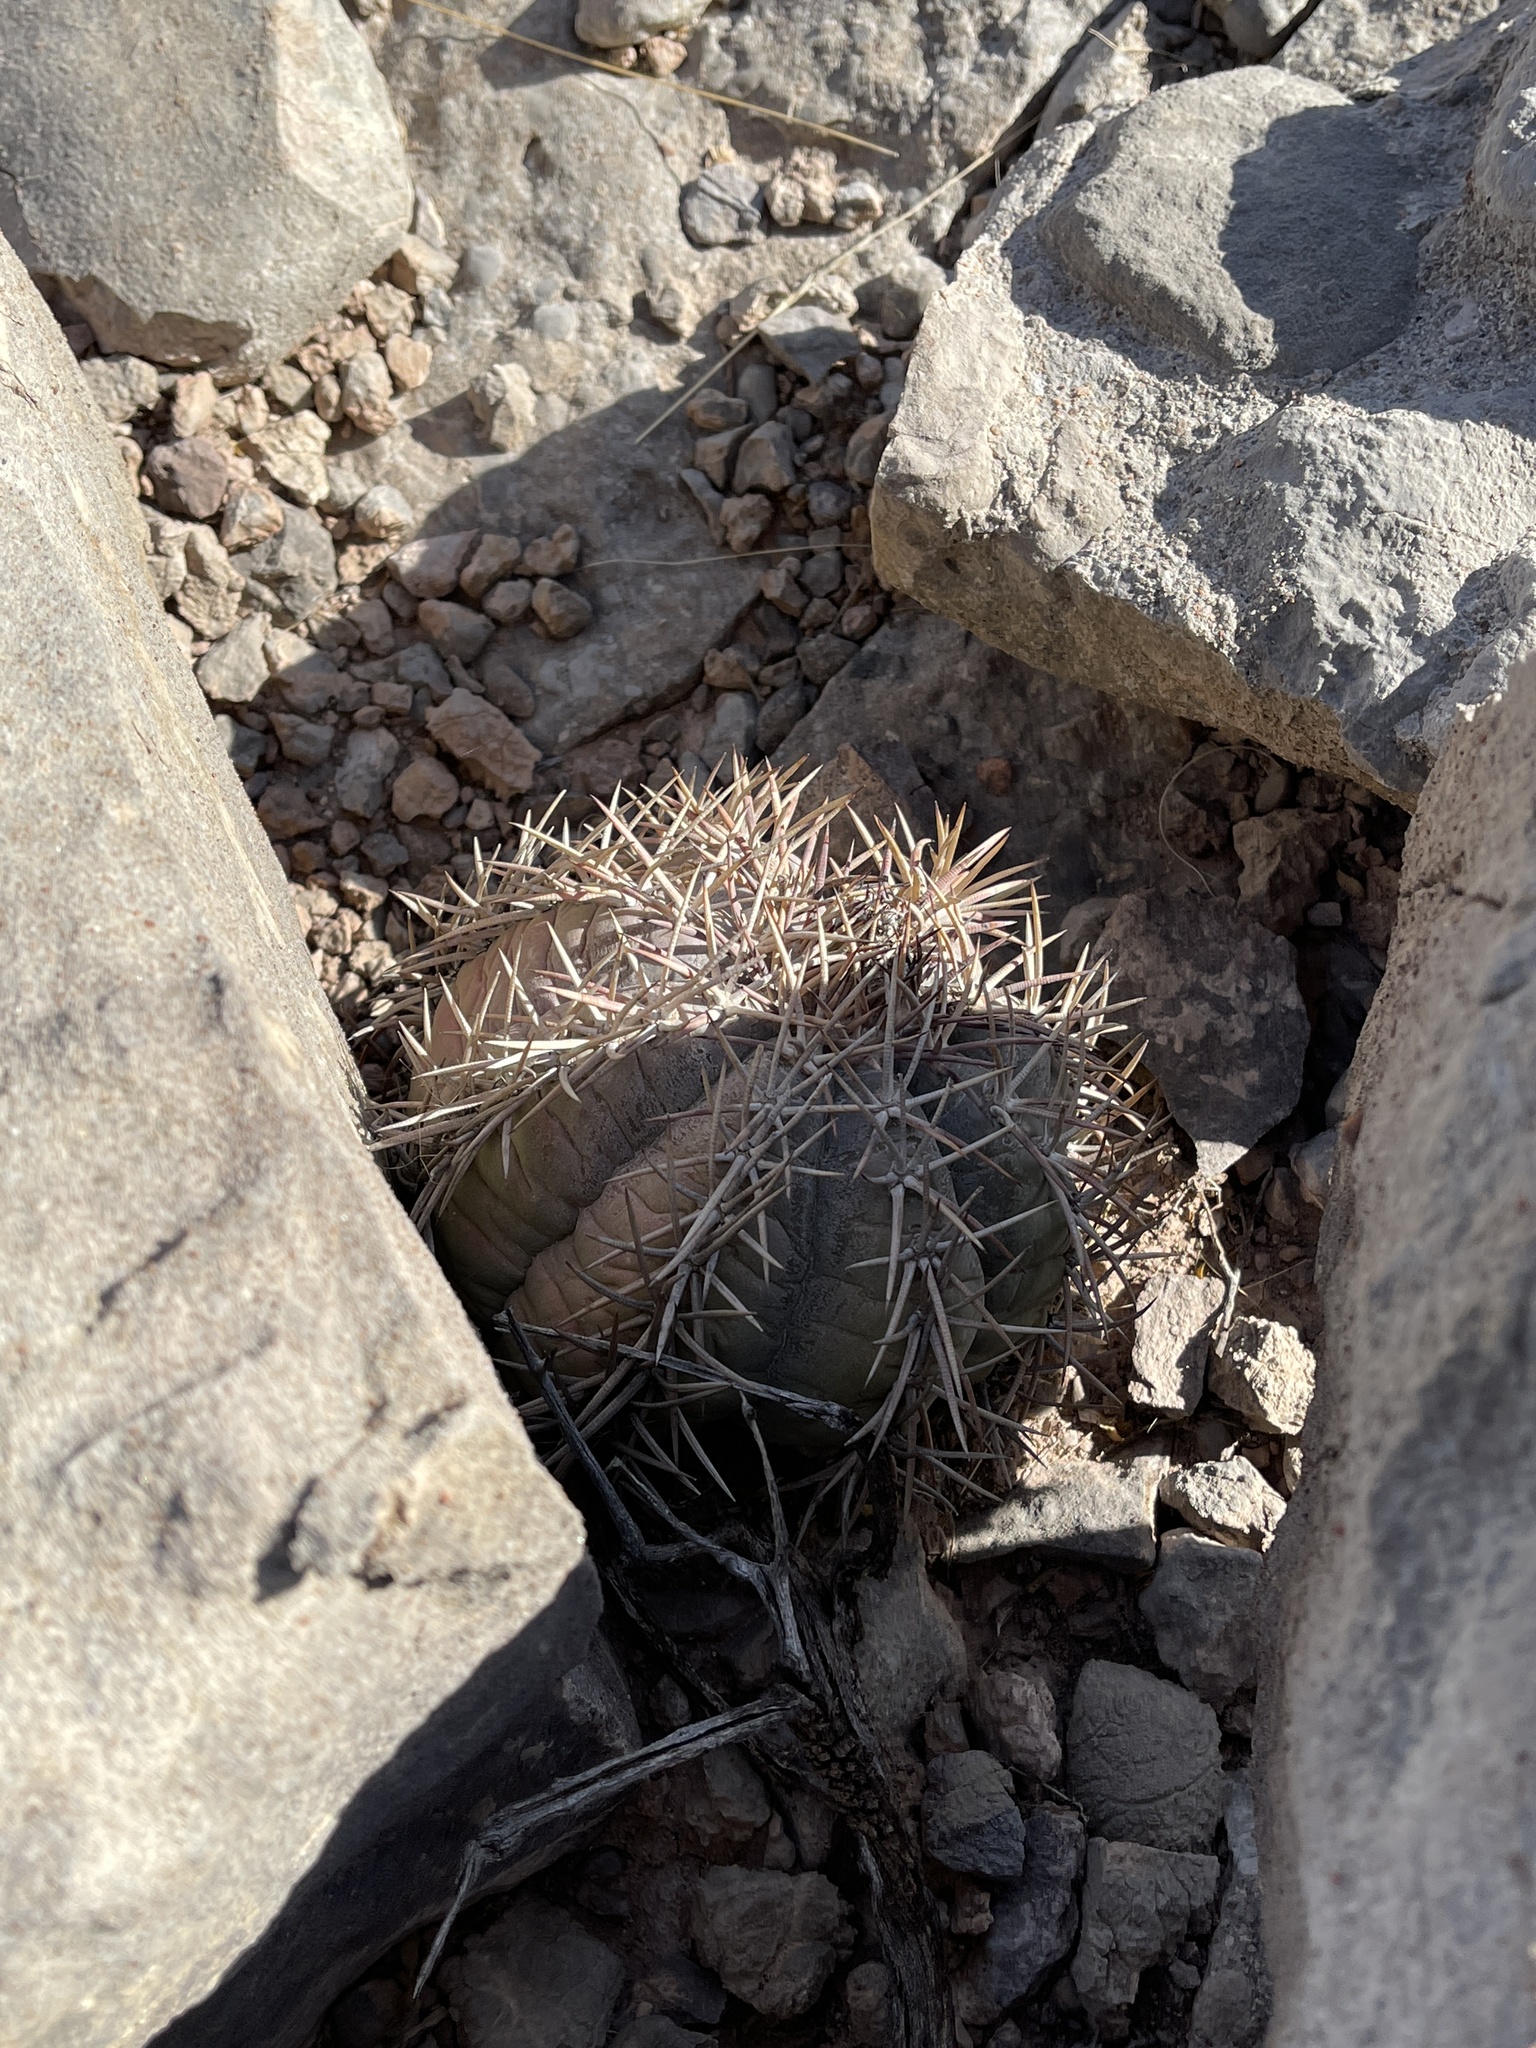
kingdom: Plantae
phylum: Tracheophyta
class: Magnoliopsida
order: Caryophyllales
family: Cactaceae
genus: Echinocactus
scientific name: Echinocactus horizonthalonius
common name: Devilshead
